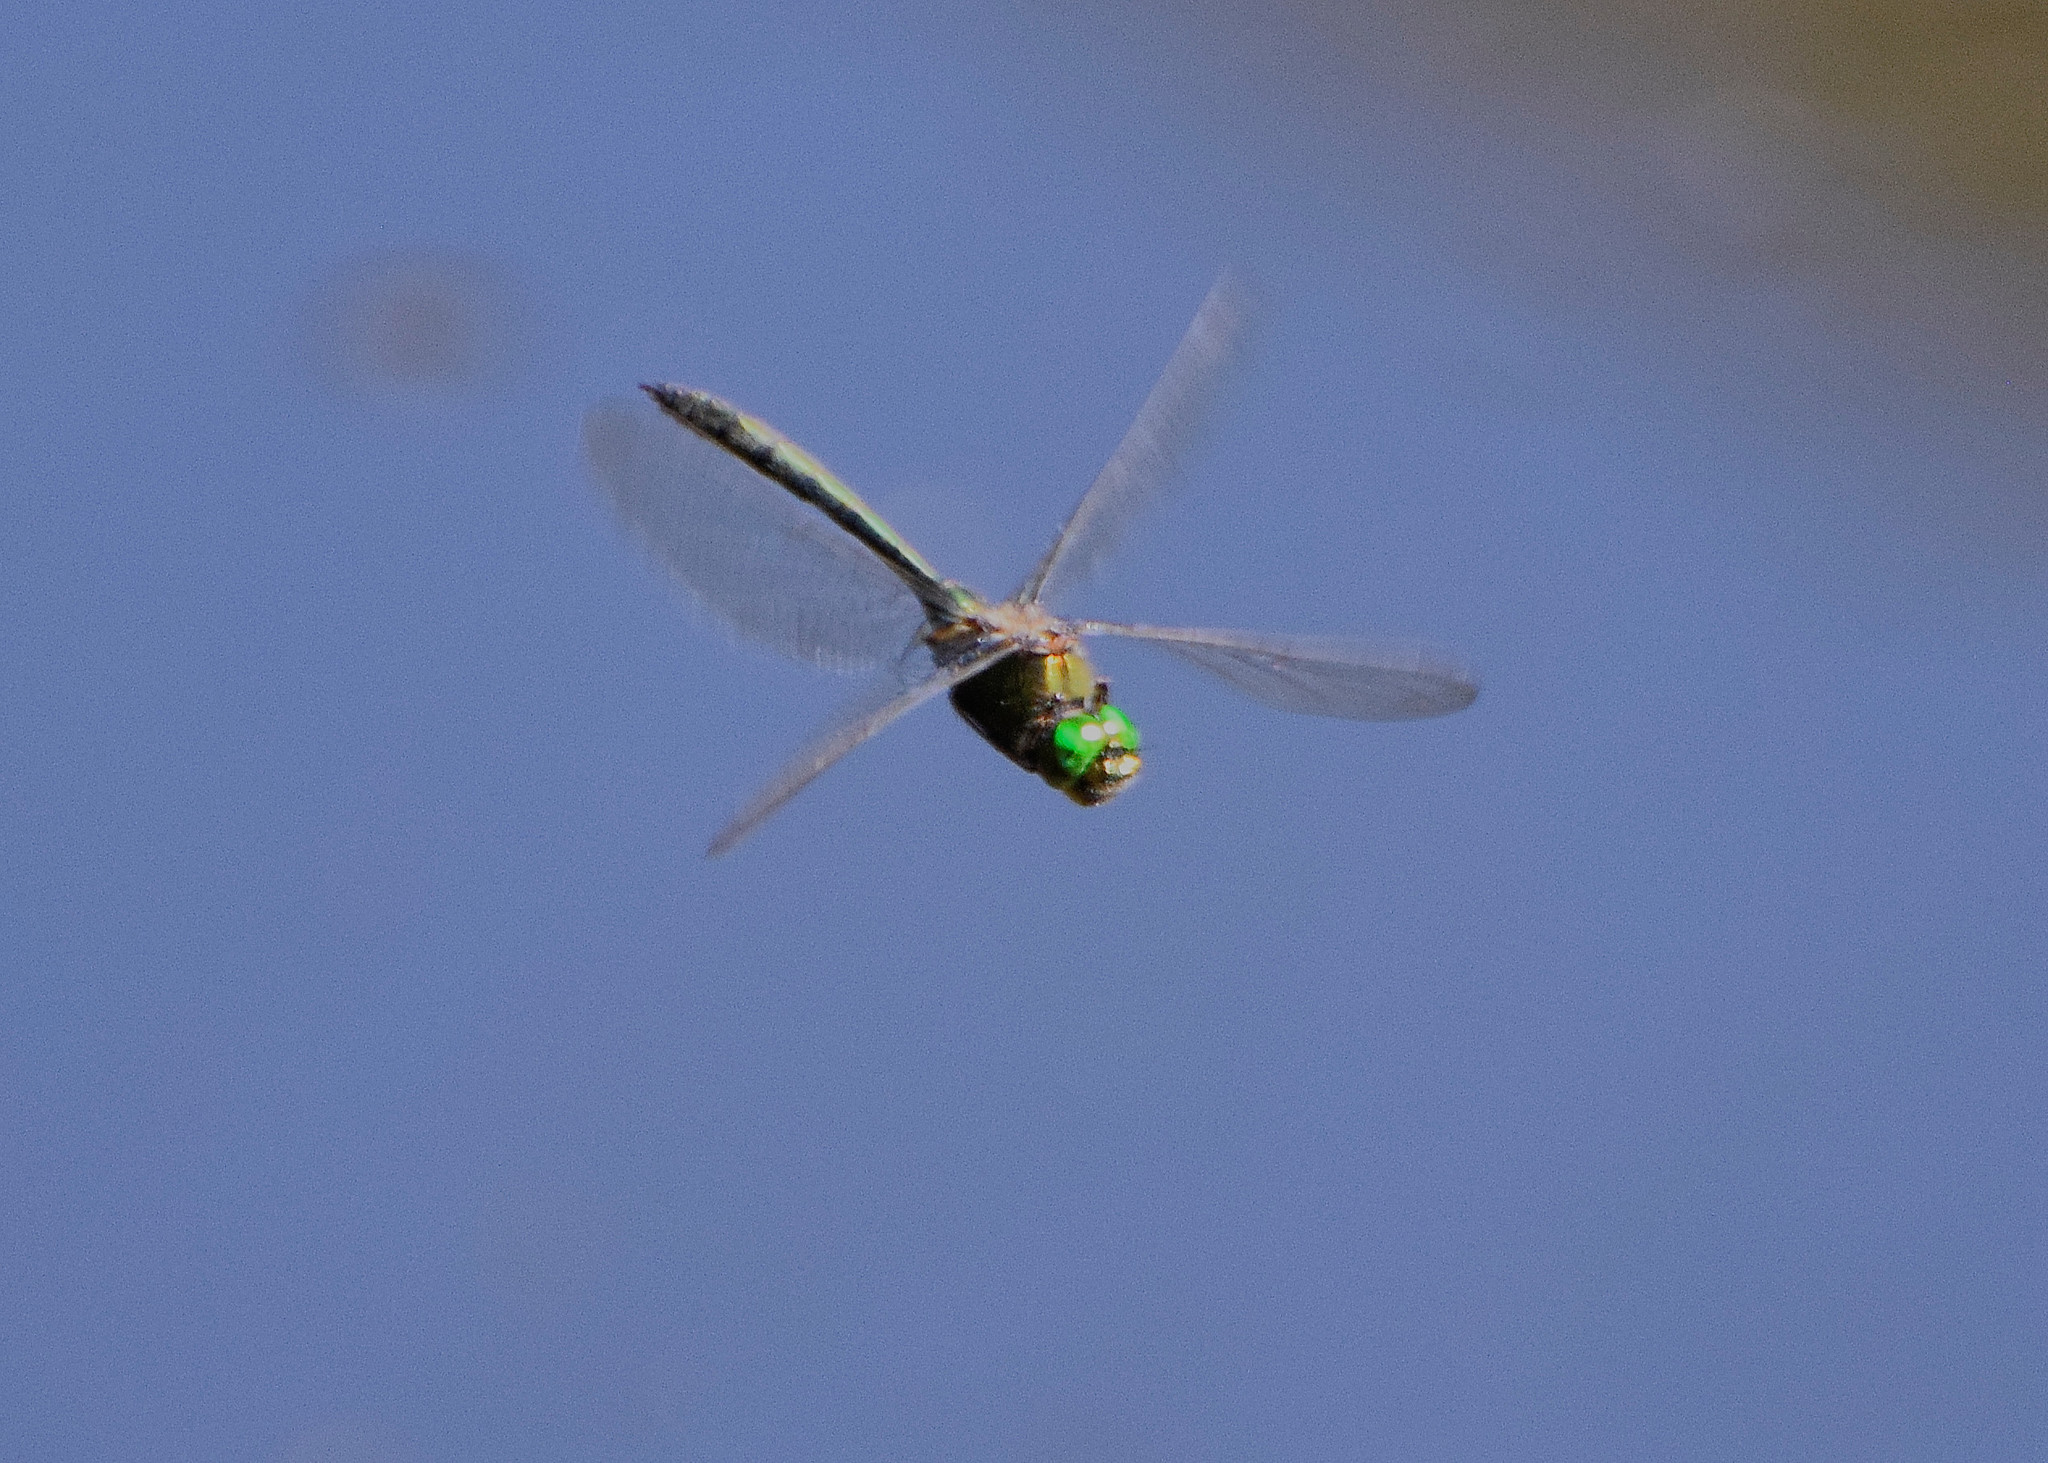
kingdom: Animalia
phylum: Arthropoda
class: Insecta
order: Odonata
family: Corduliidae
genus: Somatochlora
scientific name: Somatochlora metallica
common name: Brilliant emerald
